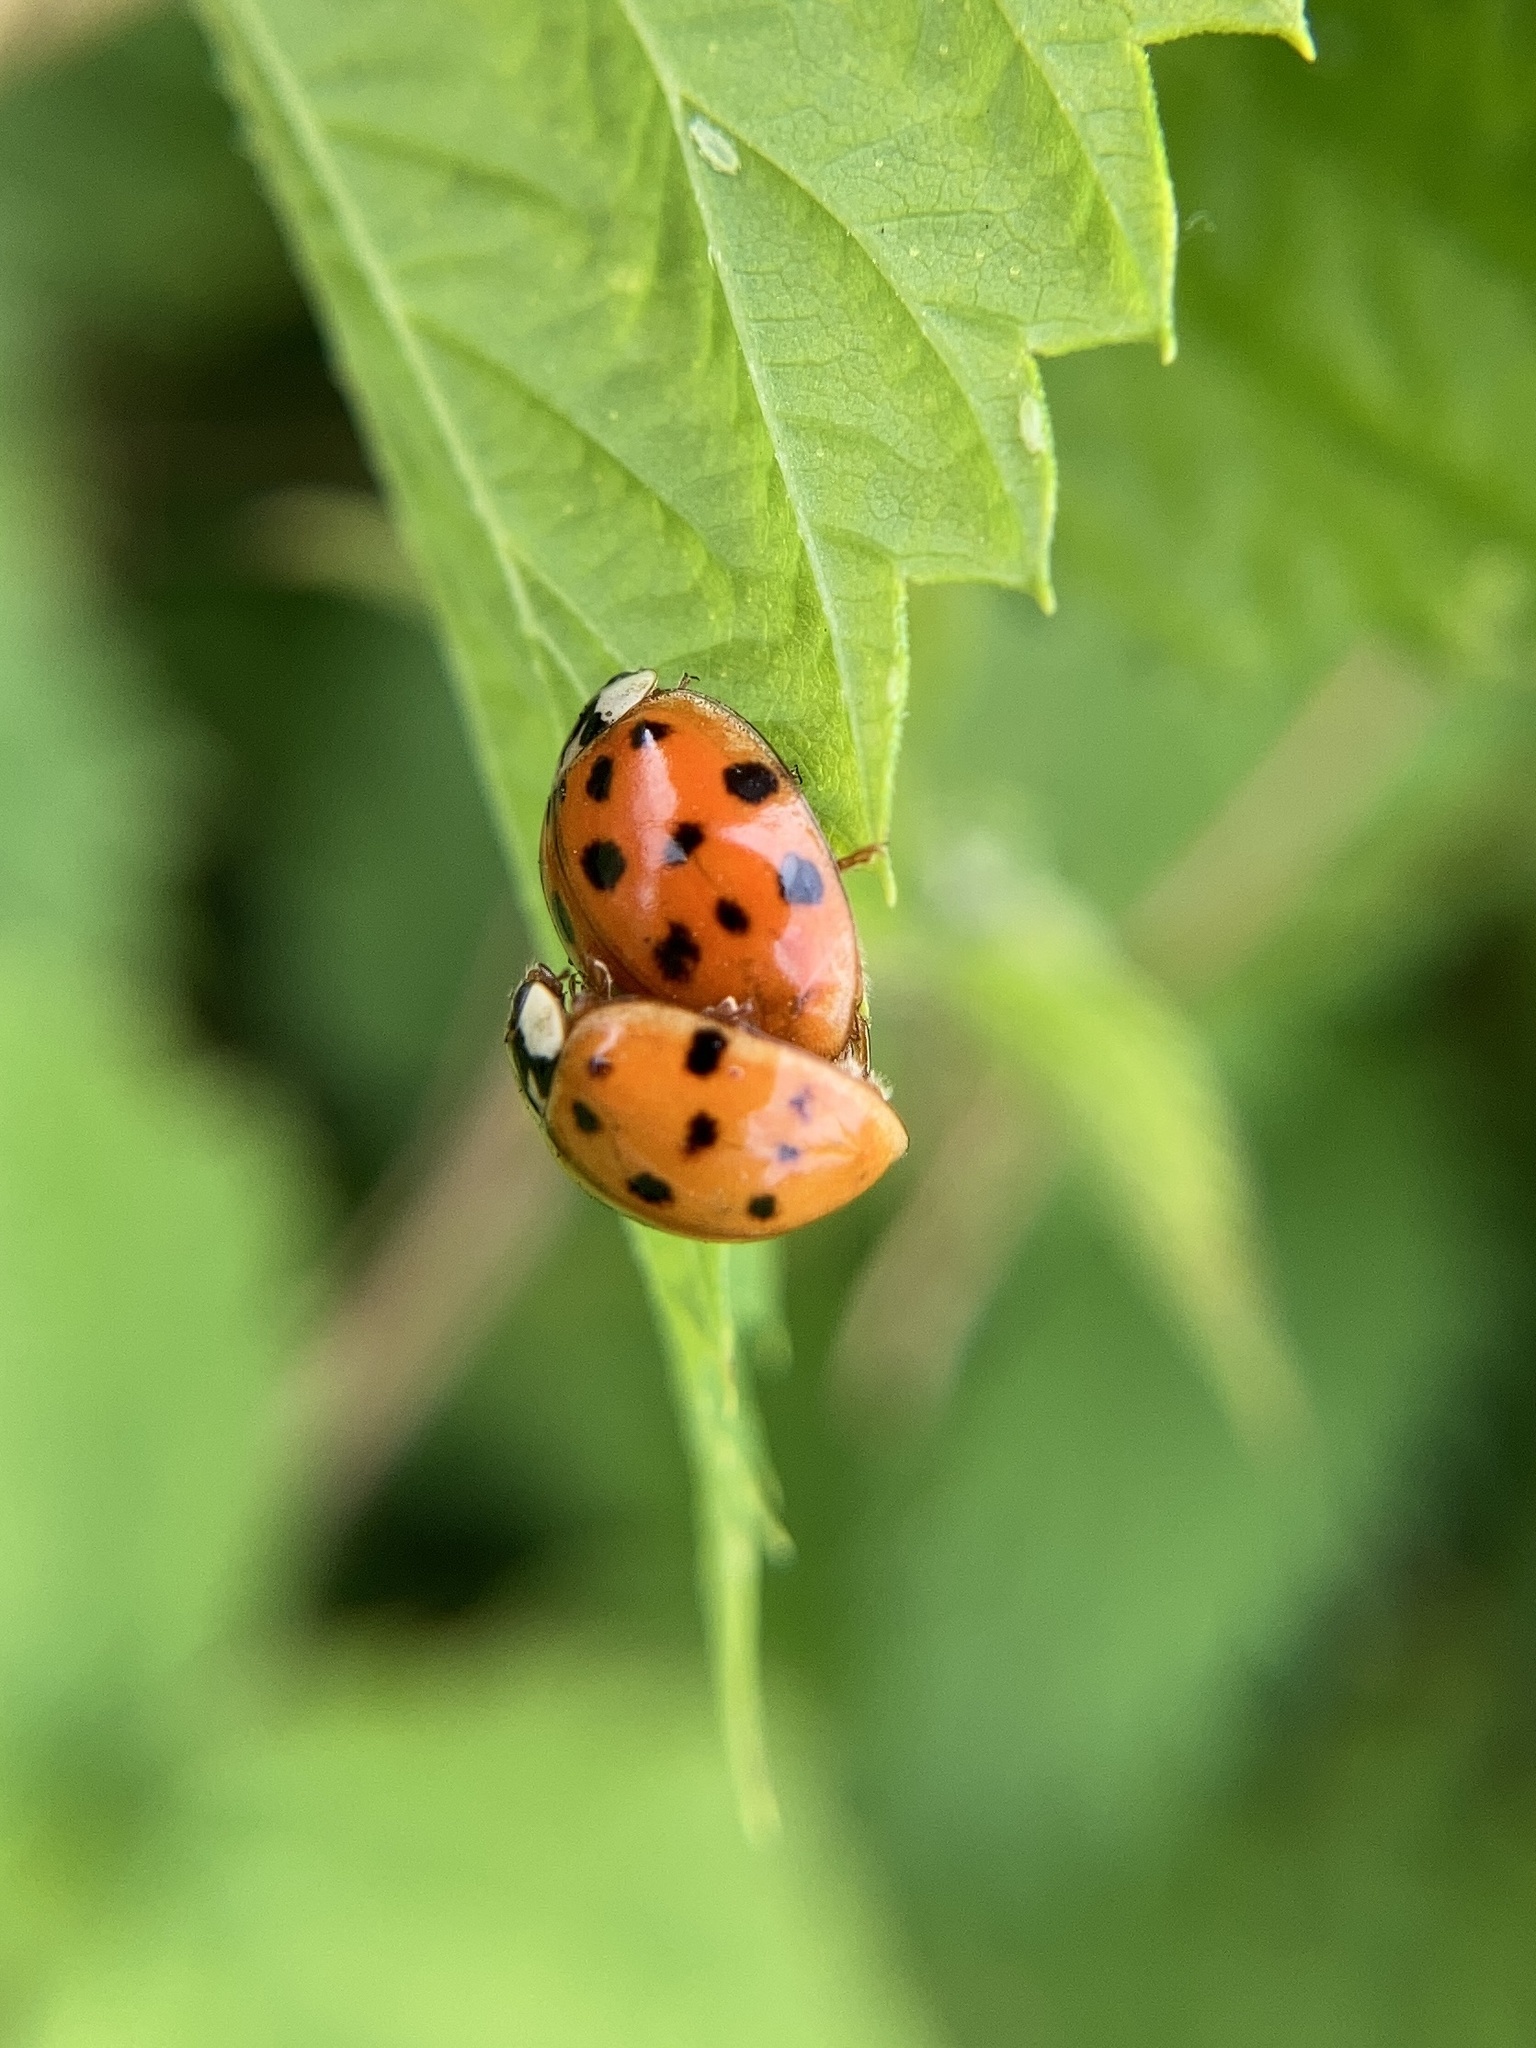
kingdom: Animalia
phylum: Arthropoda
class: Insecta
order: Coleoptera
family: Coccinellidae
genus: Harmonia
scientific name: Harmonia axyridis
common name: Harlequin ladybird
